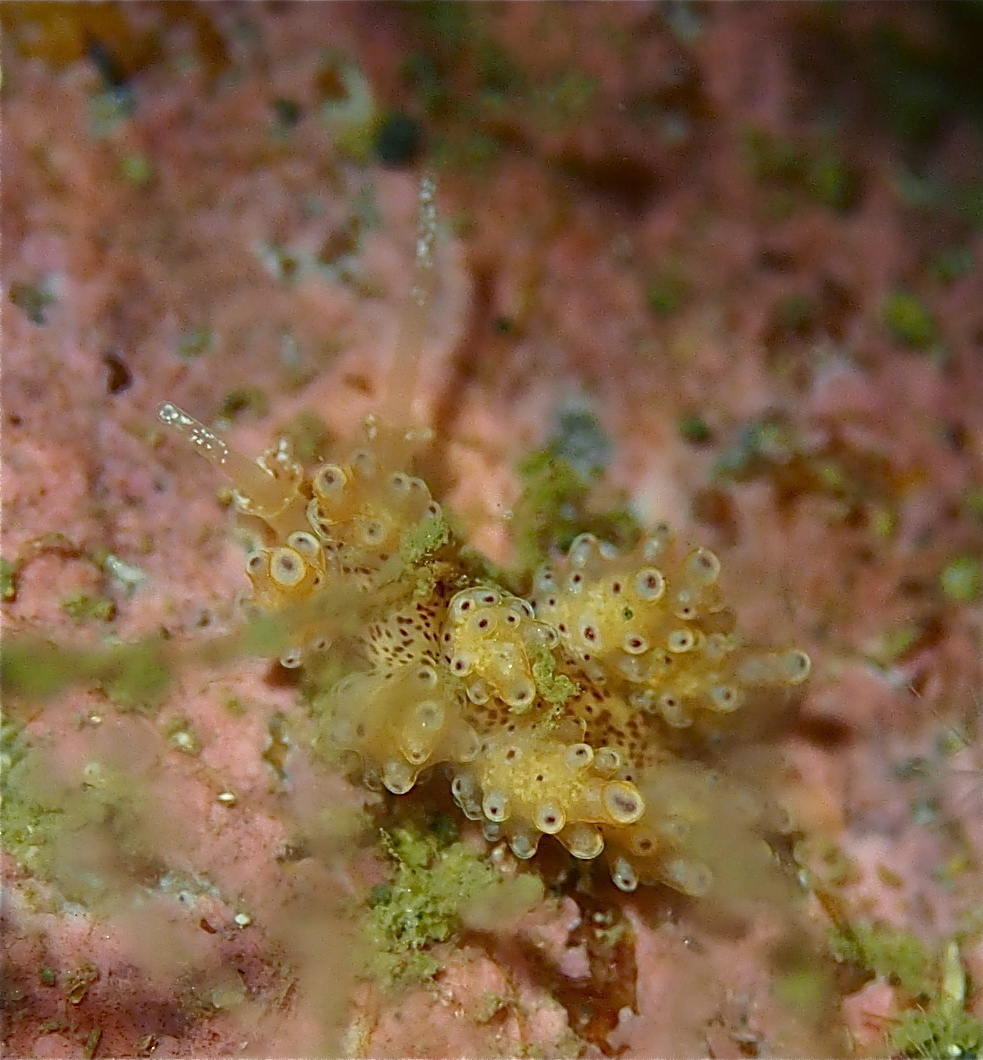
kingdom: Animalia
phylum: Mollusca
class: Gastropoda
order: Nudibranchia
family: Dotidae
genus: Doto
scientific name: Doto dunnei
